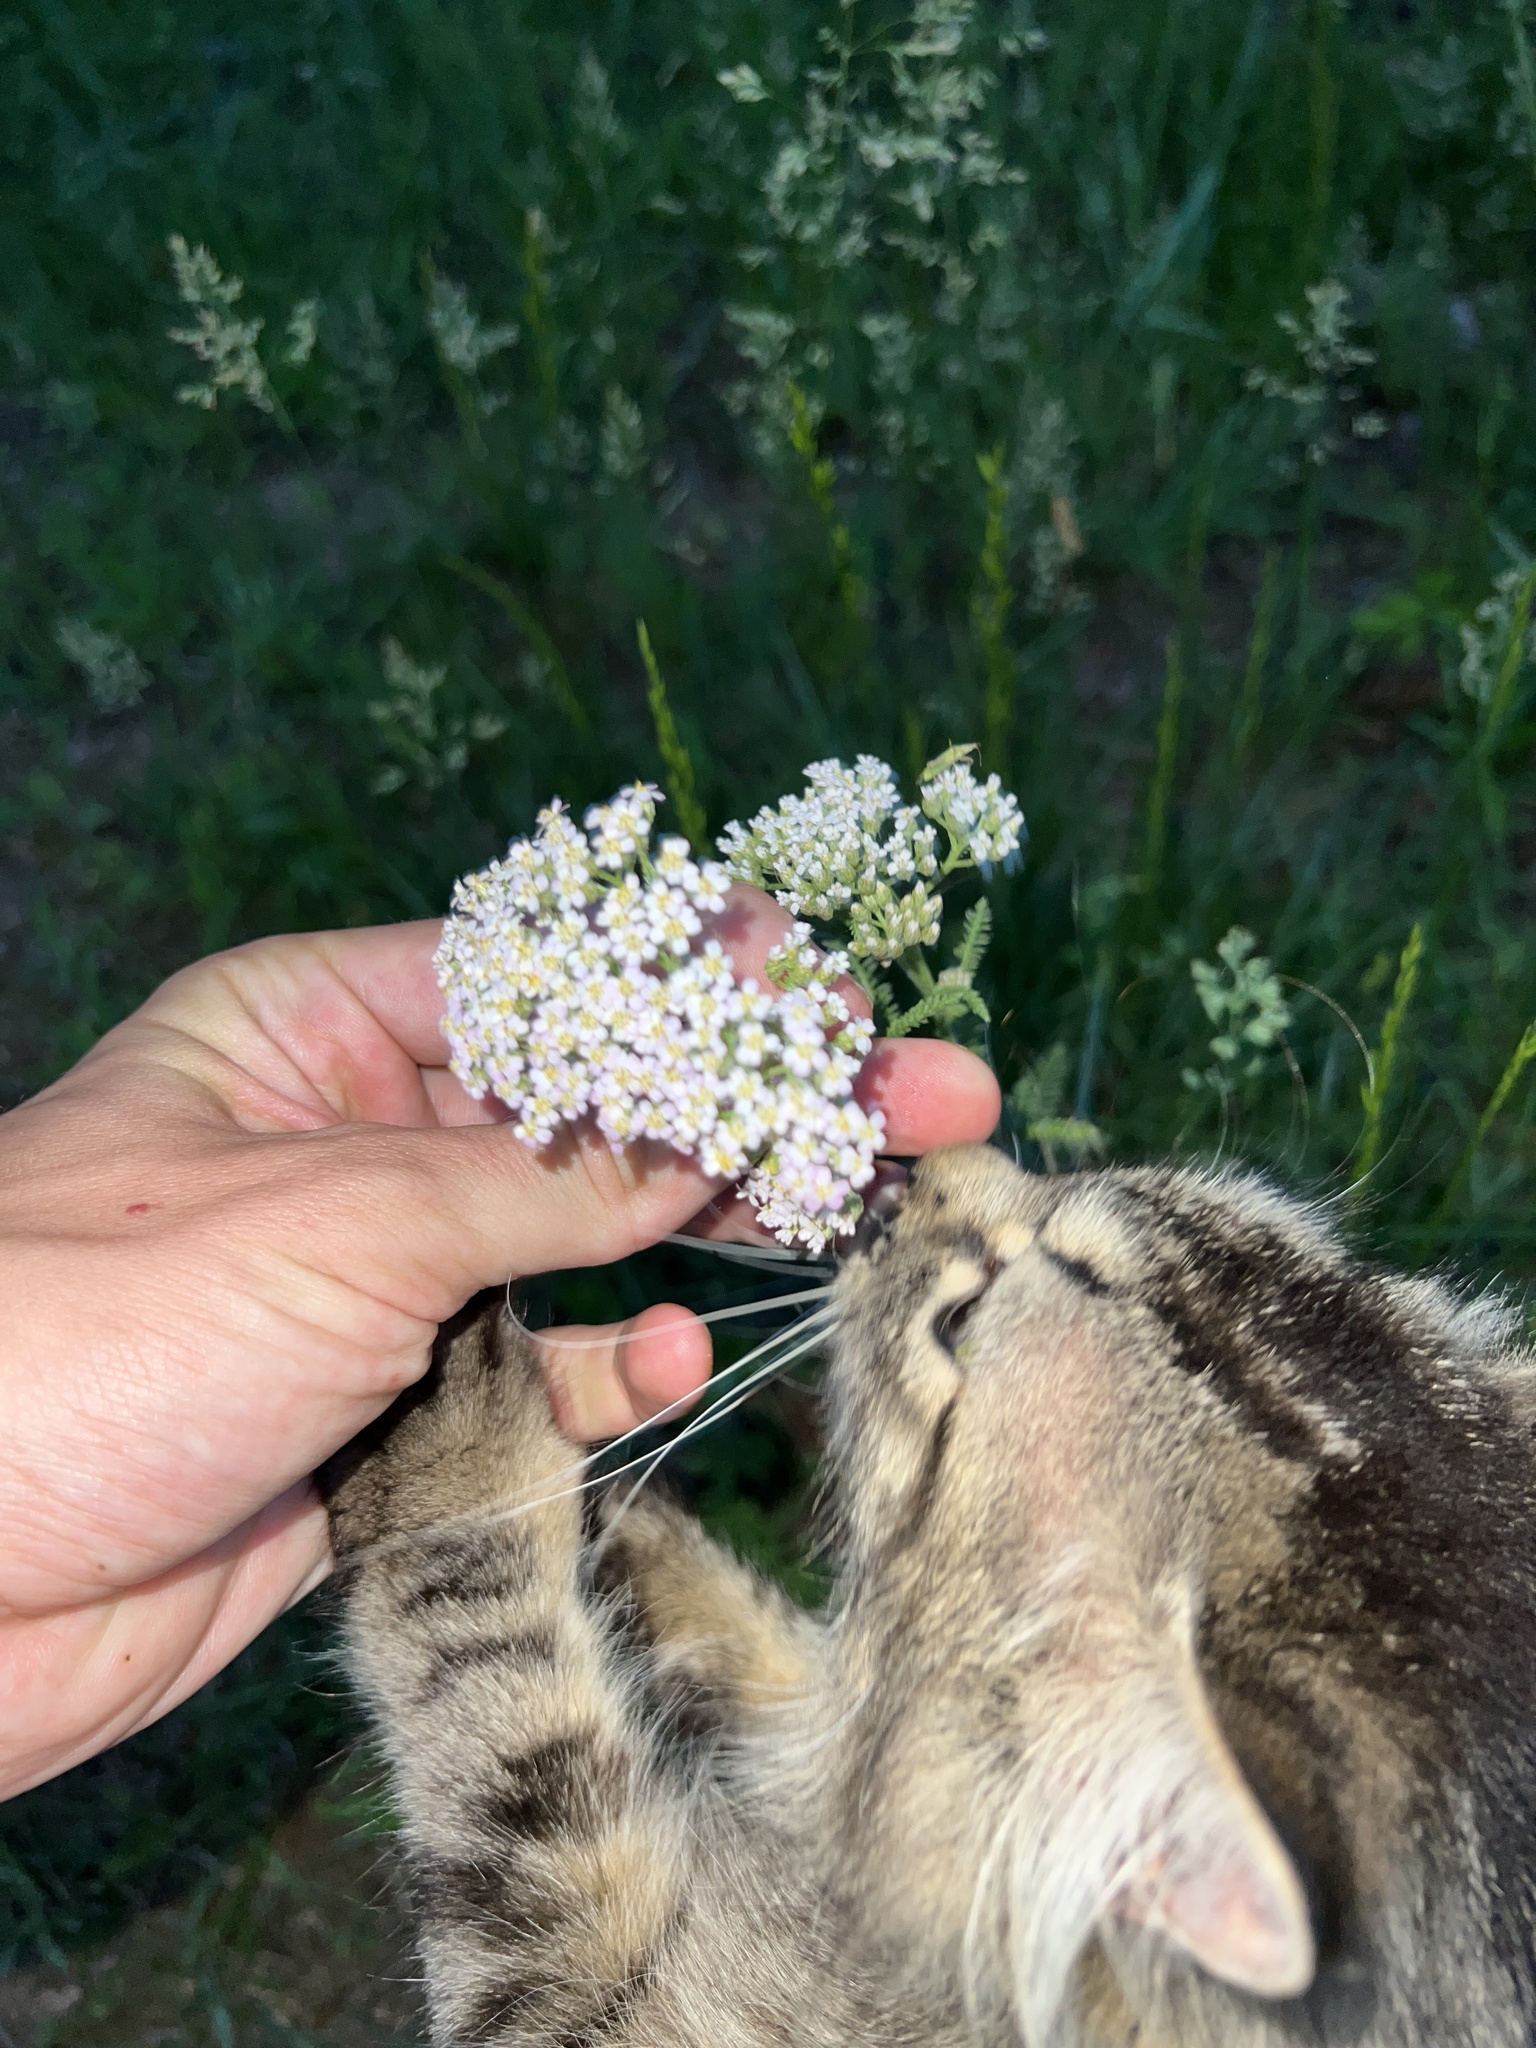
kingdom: Plantae
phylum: Tracheophyta
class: Magnoliopsida
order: Asterales
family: Asteraceae
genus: Achillea
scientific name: Achillea millefolium
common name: Yarrow
